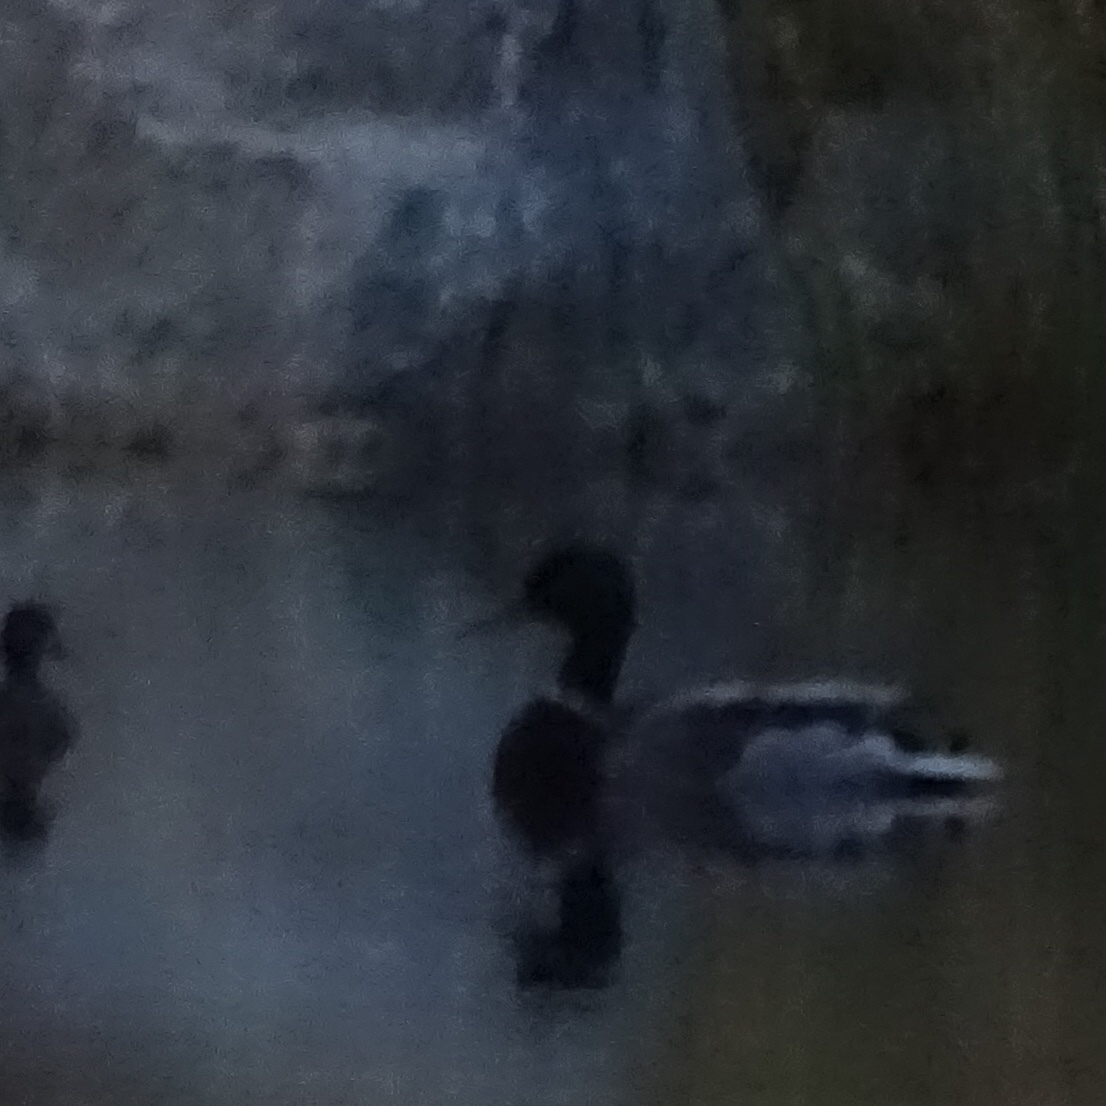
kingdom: Animalia
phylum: Chordata
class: Aves
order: Anseriformes
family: Anatidae
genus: Anas
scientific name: Anas platyrhynchos
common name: Mallard
